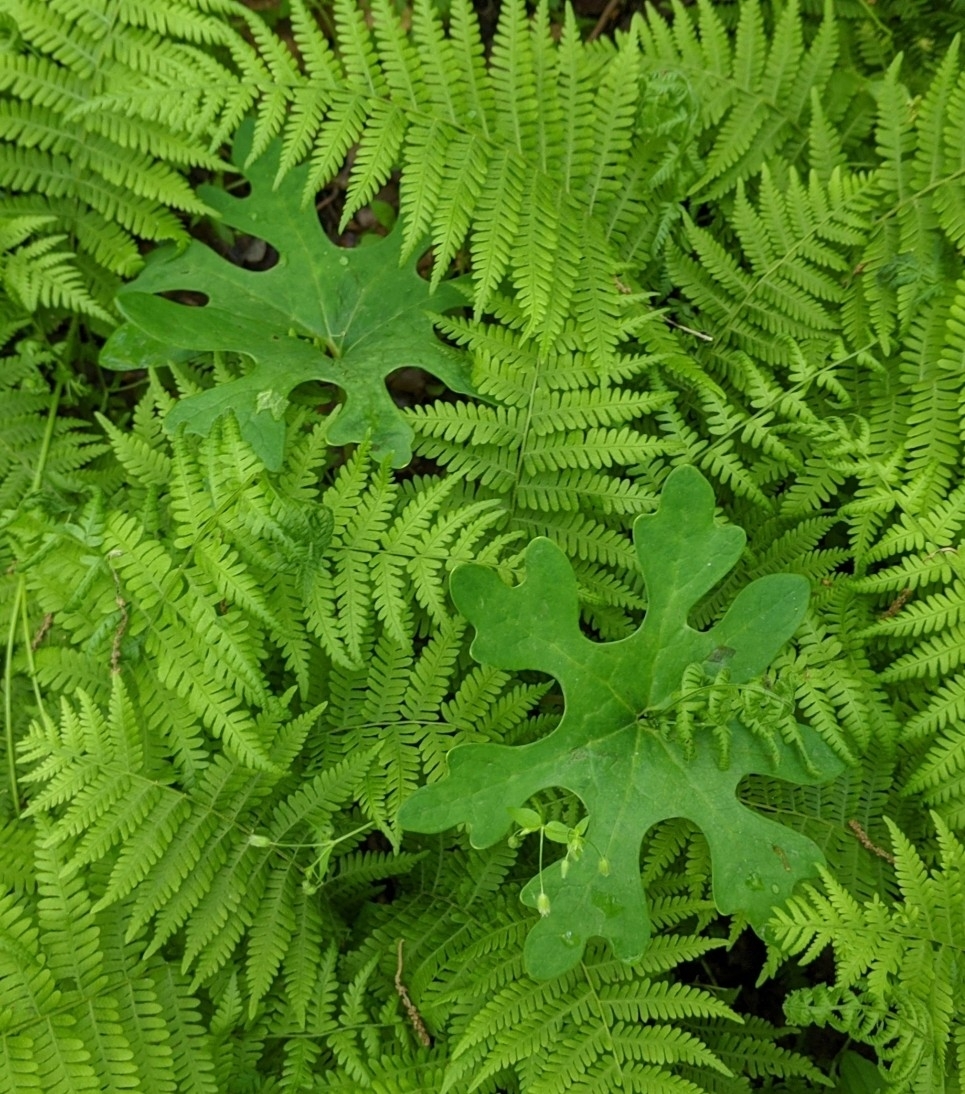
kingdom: Plantae
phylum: Tracheophyta
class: Magnoliopsida
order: Ranunculales
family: Papaveraceae
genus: Sanguinaria
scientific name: Sanguinaria canadensis
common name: Bloodroot
